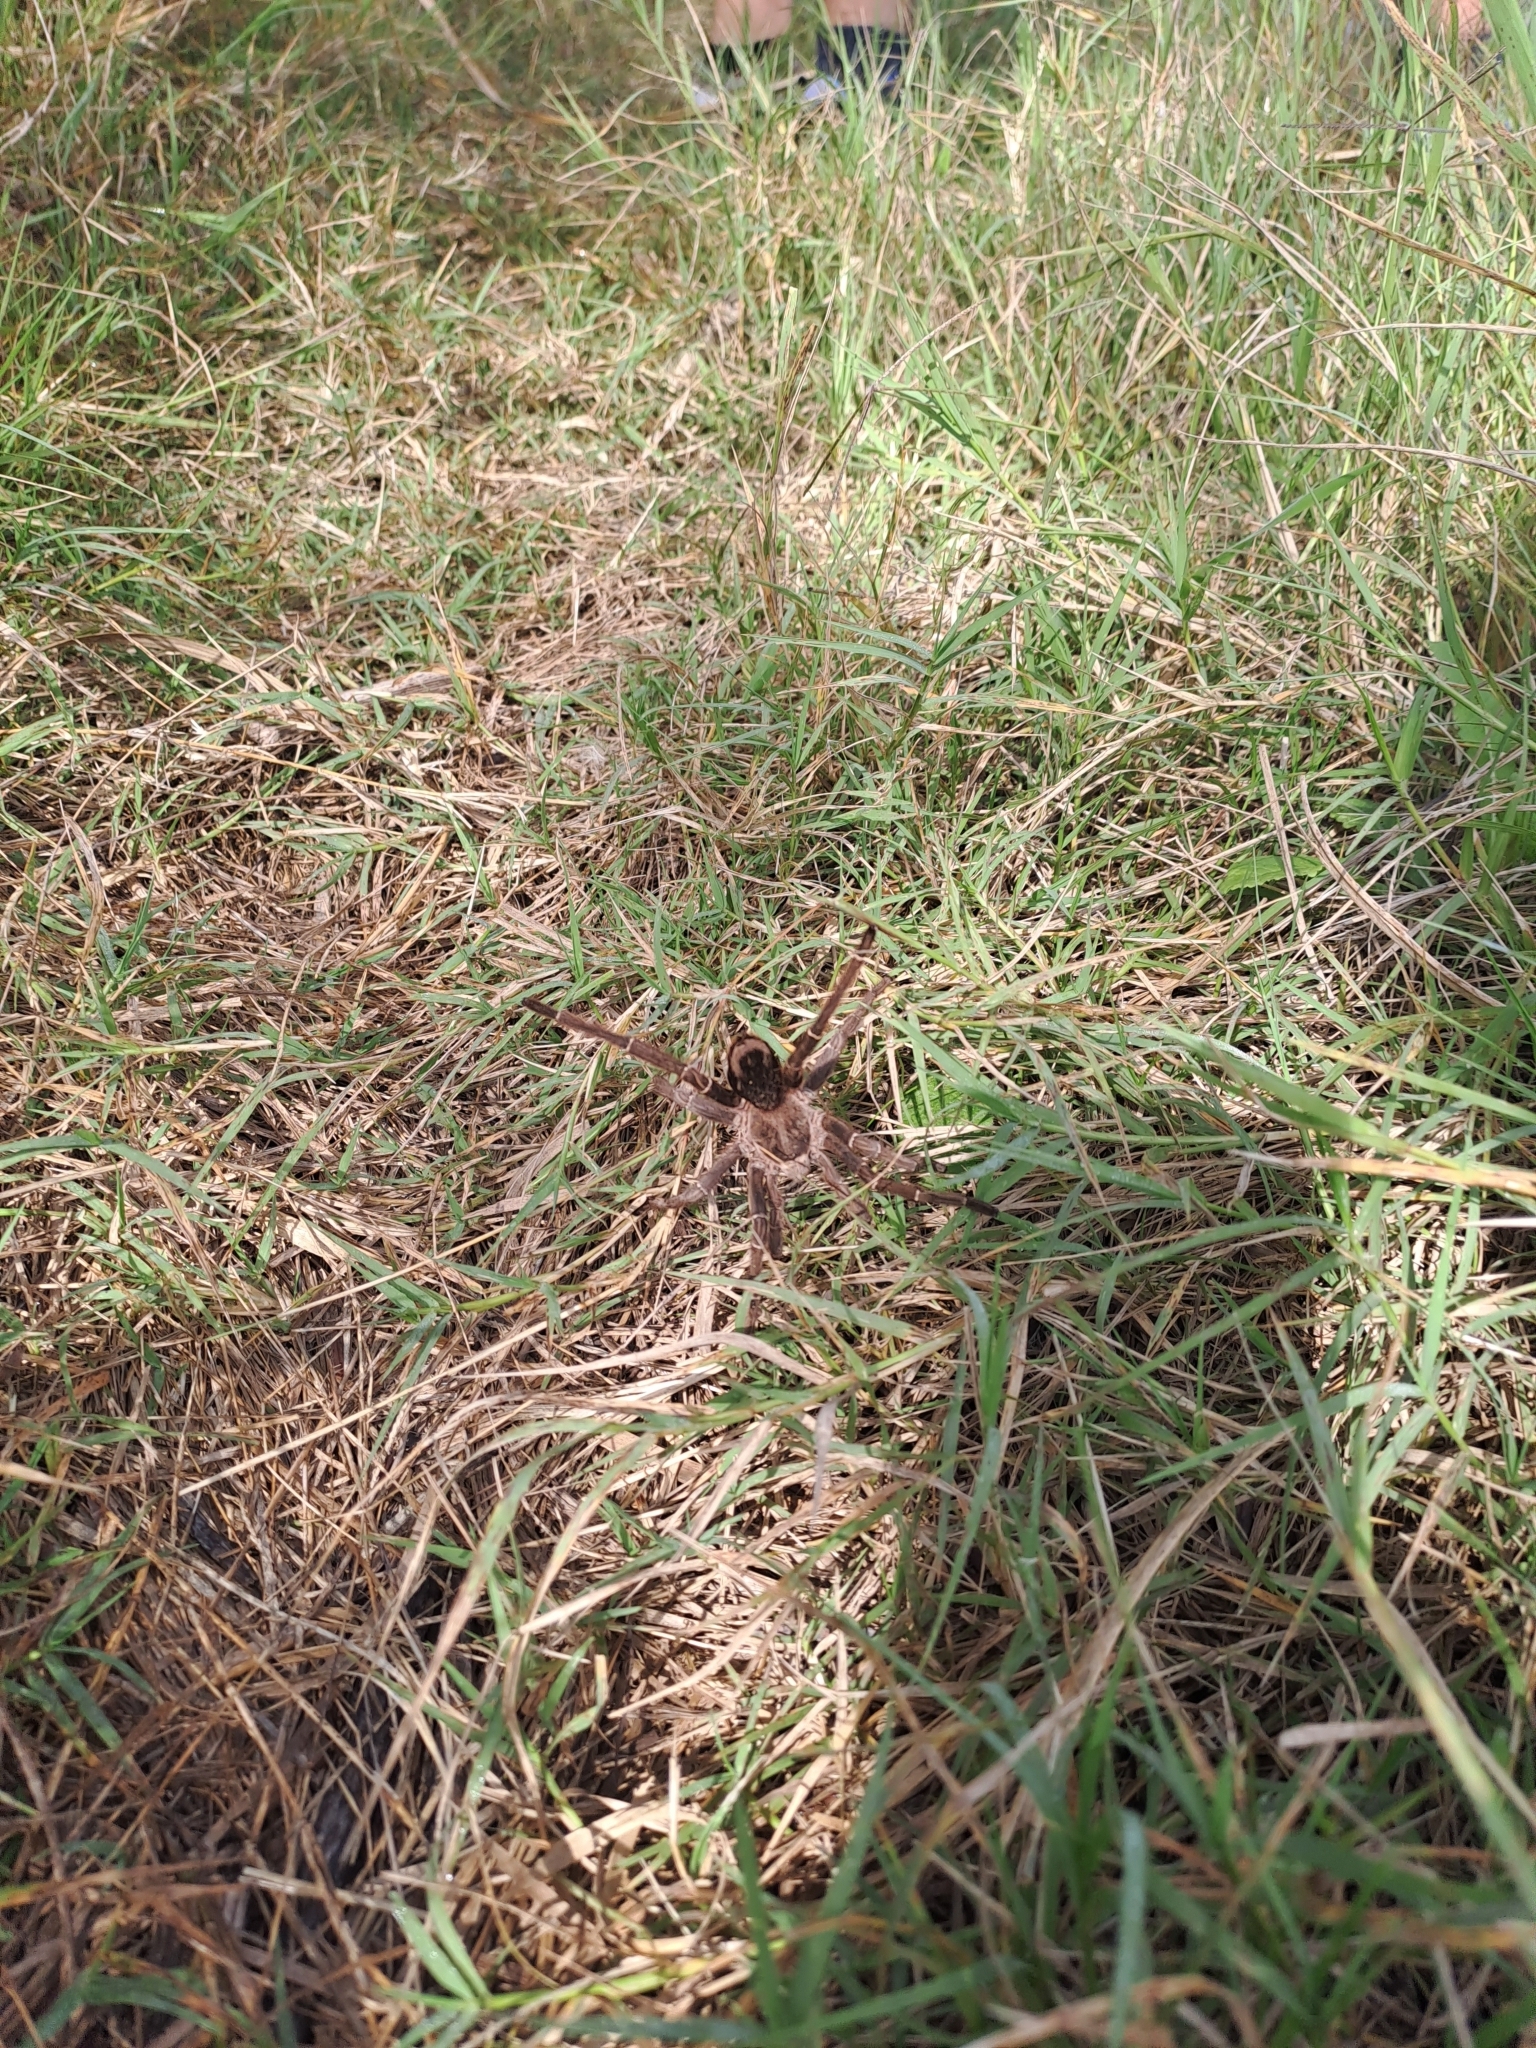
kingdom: Animalia
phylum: Arthropoda
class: Arachnida
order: Araneae
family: Theraphosidae
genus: Eupalaestrus
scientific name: Eupalaestrus weijenberghi
